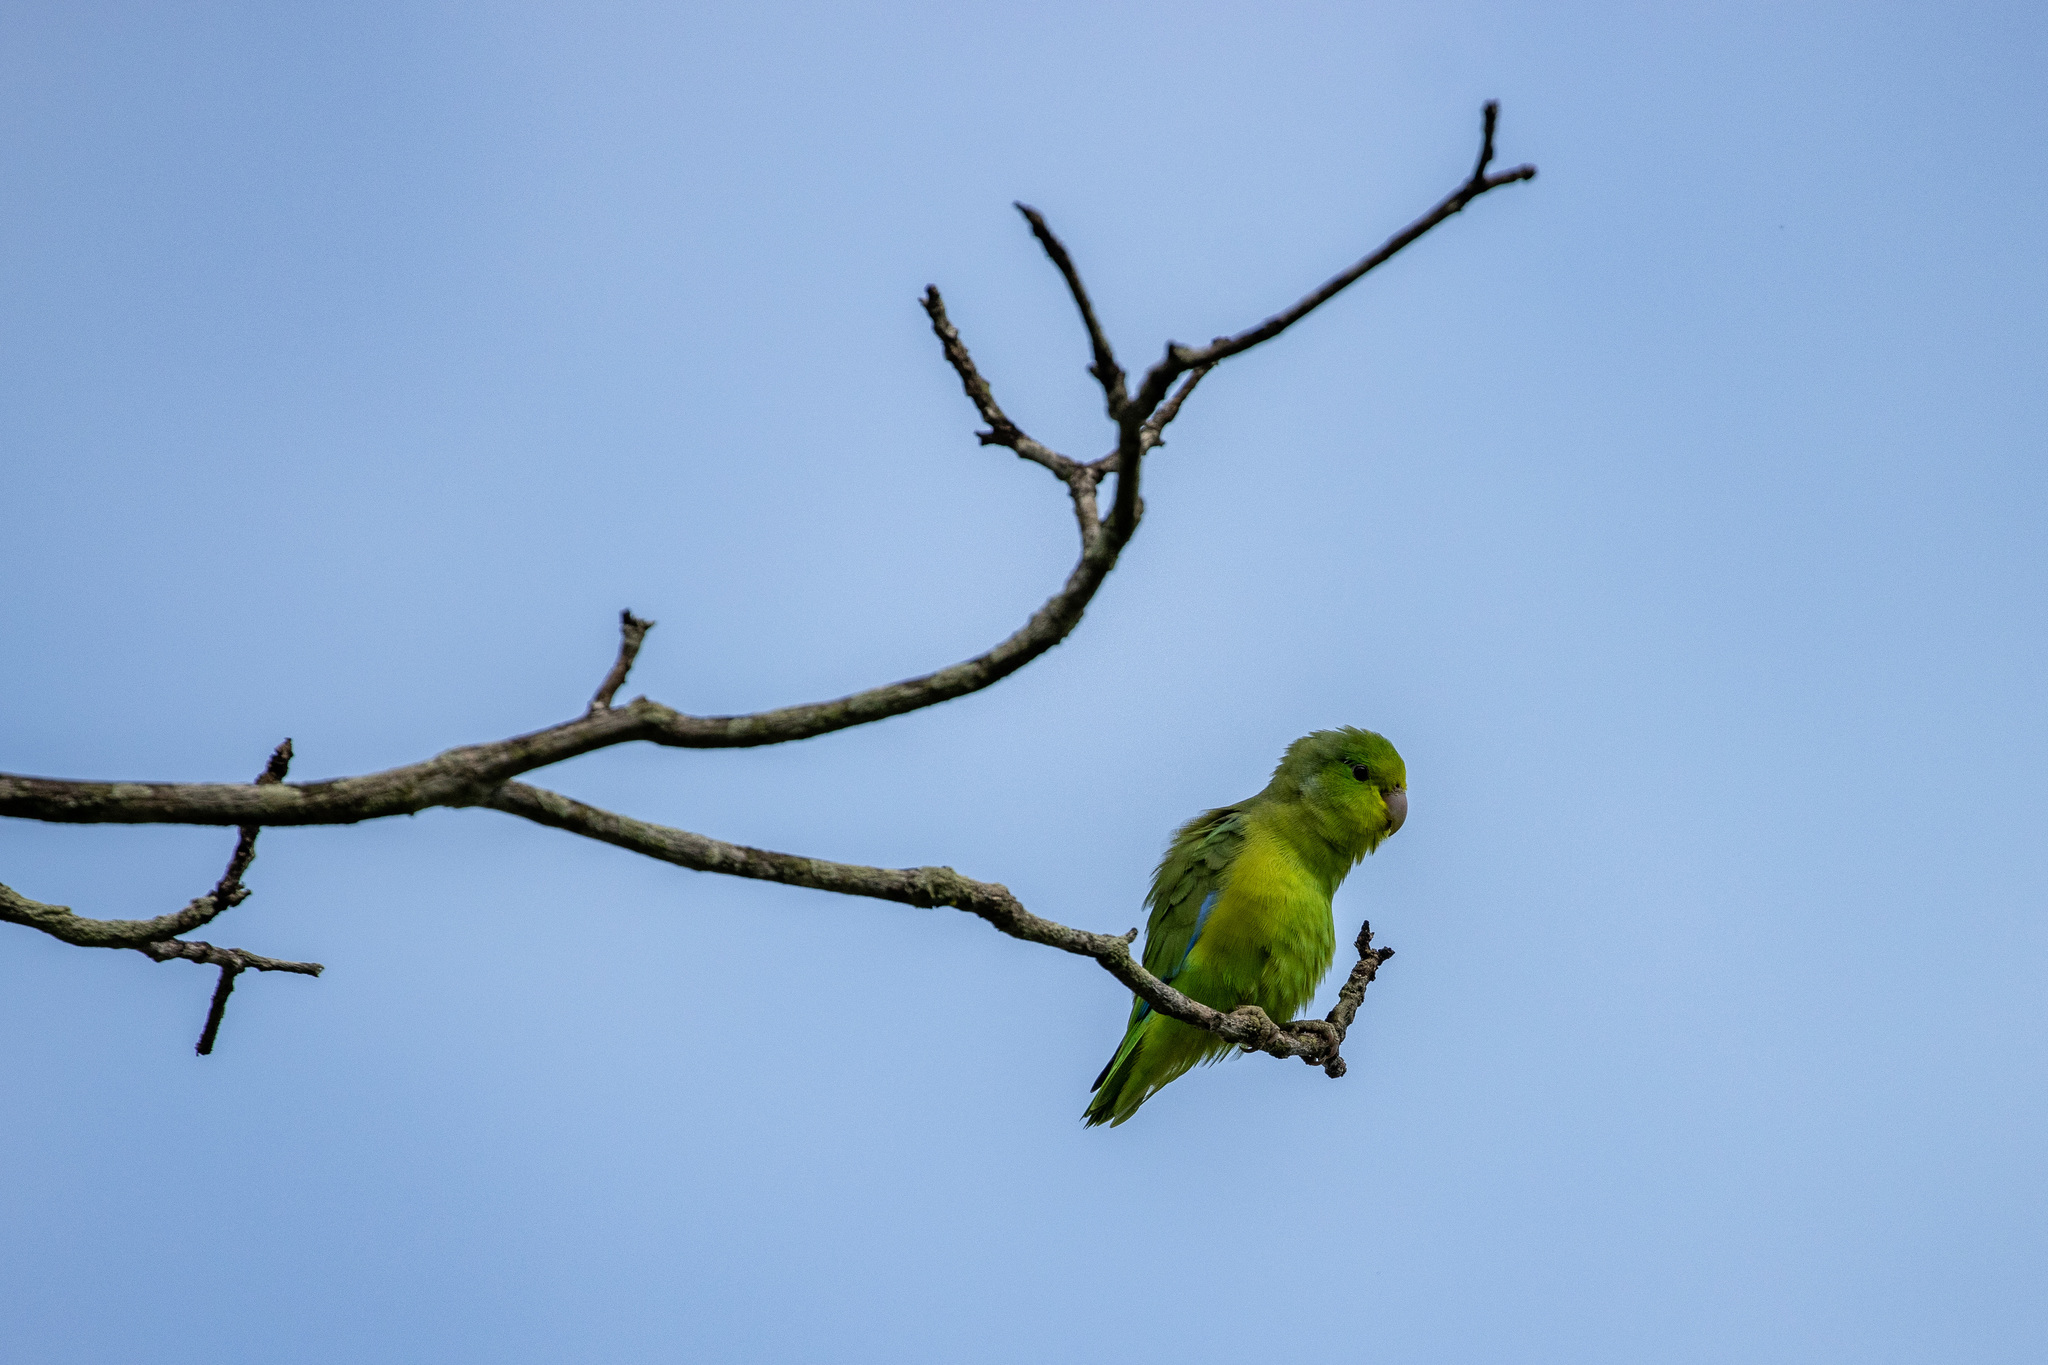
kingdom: Animalia
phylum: Chordata
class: Aves
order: Psittaciformes
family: Psittacidae
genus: Forpus
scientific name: Forpus xanthopterygius
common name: Blue-winged parrotlet
